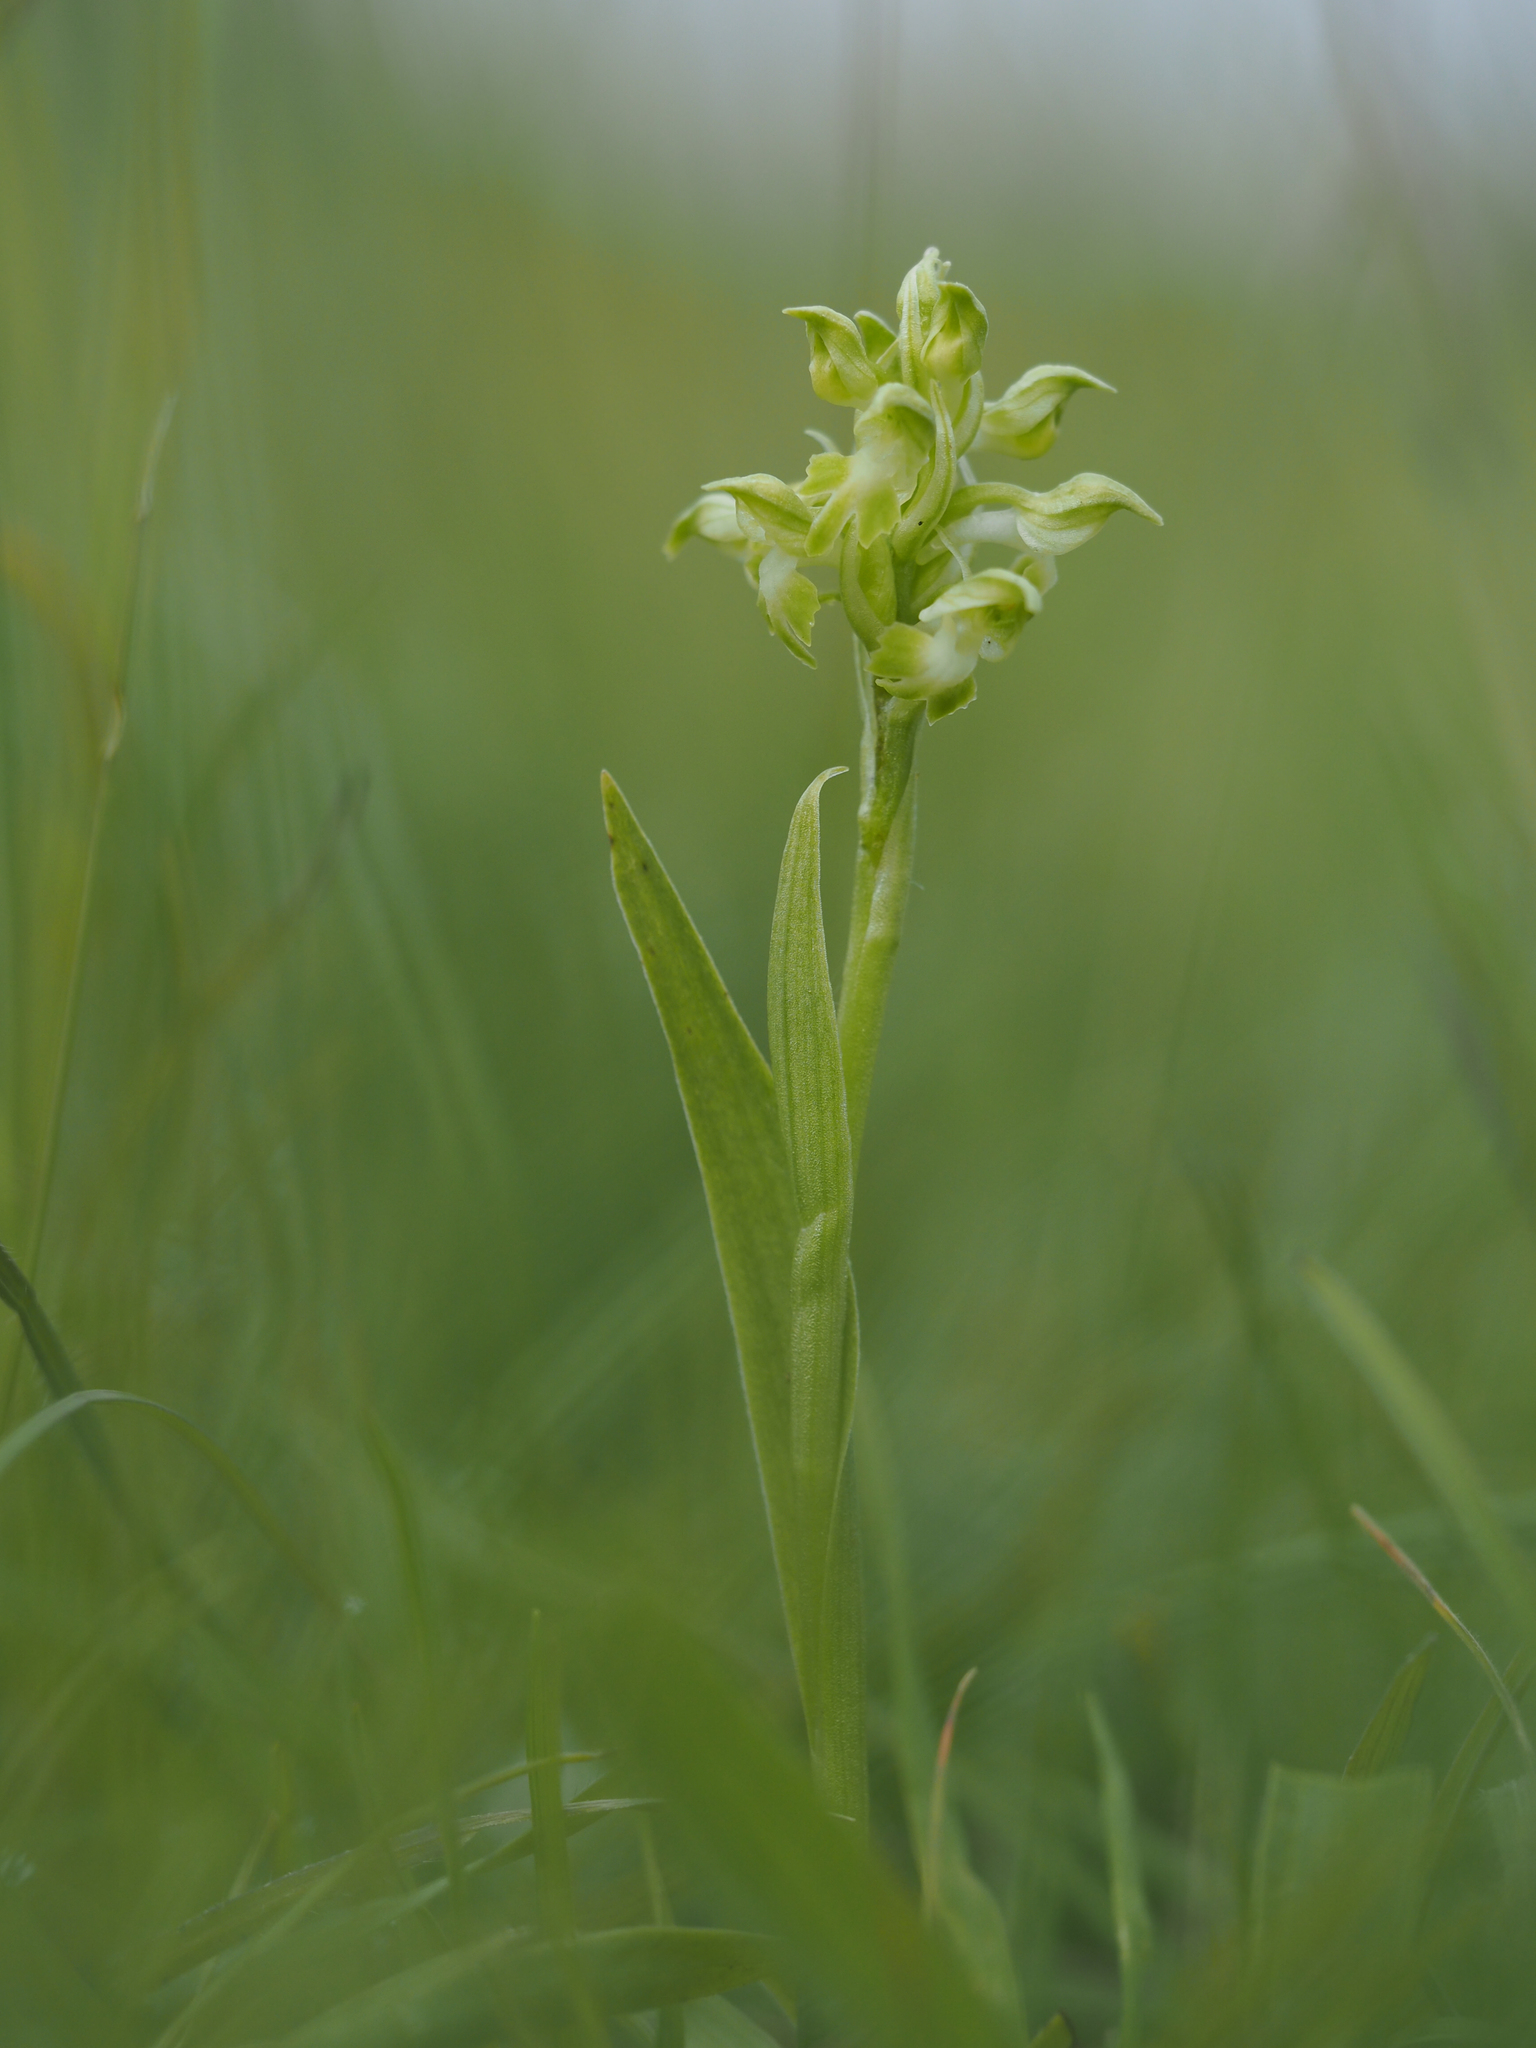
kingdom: Plantae
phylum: Tracheophyta
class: Liliopsida
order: Asparagales
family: Orchidaceae
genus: Anacamptis
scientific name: Anacamptis coriophora
